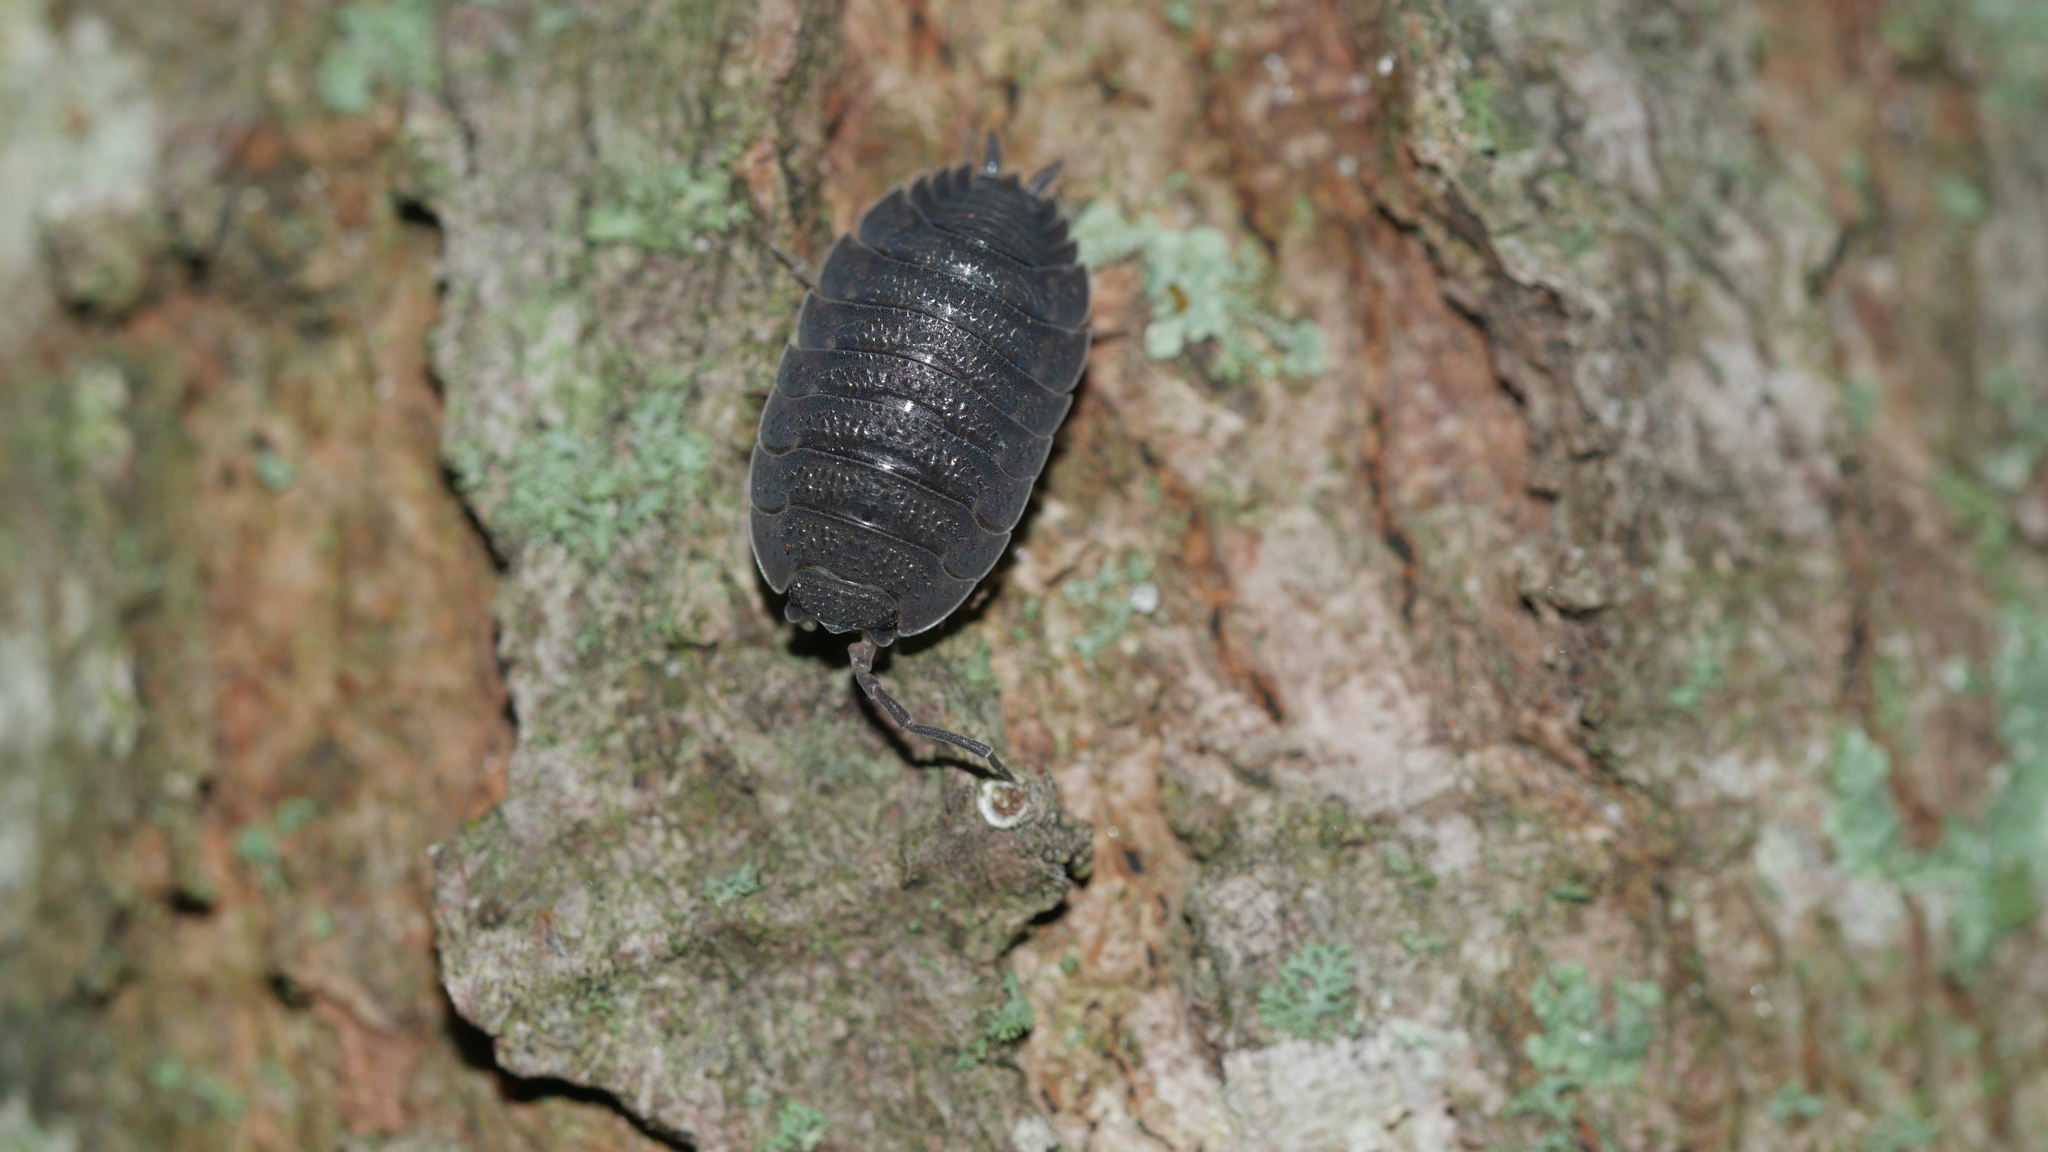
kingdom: Animalia
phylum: Arthropoda
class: Malacostraca
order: Isopoda
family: Porcellionidae
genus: Porcellio
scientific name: Porcellio scaber
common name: Common rough woodlouse
